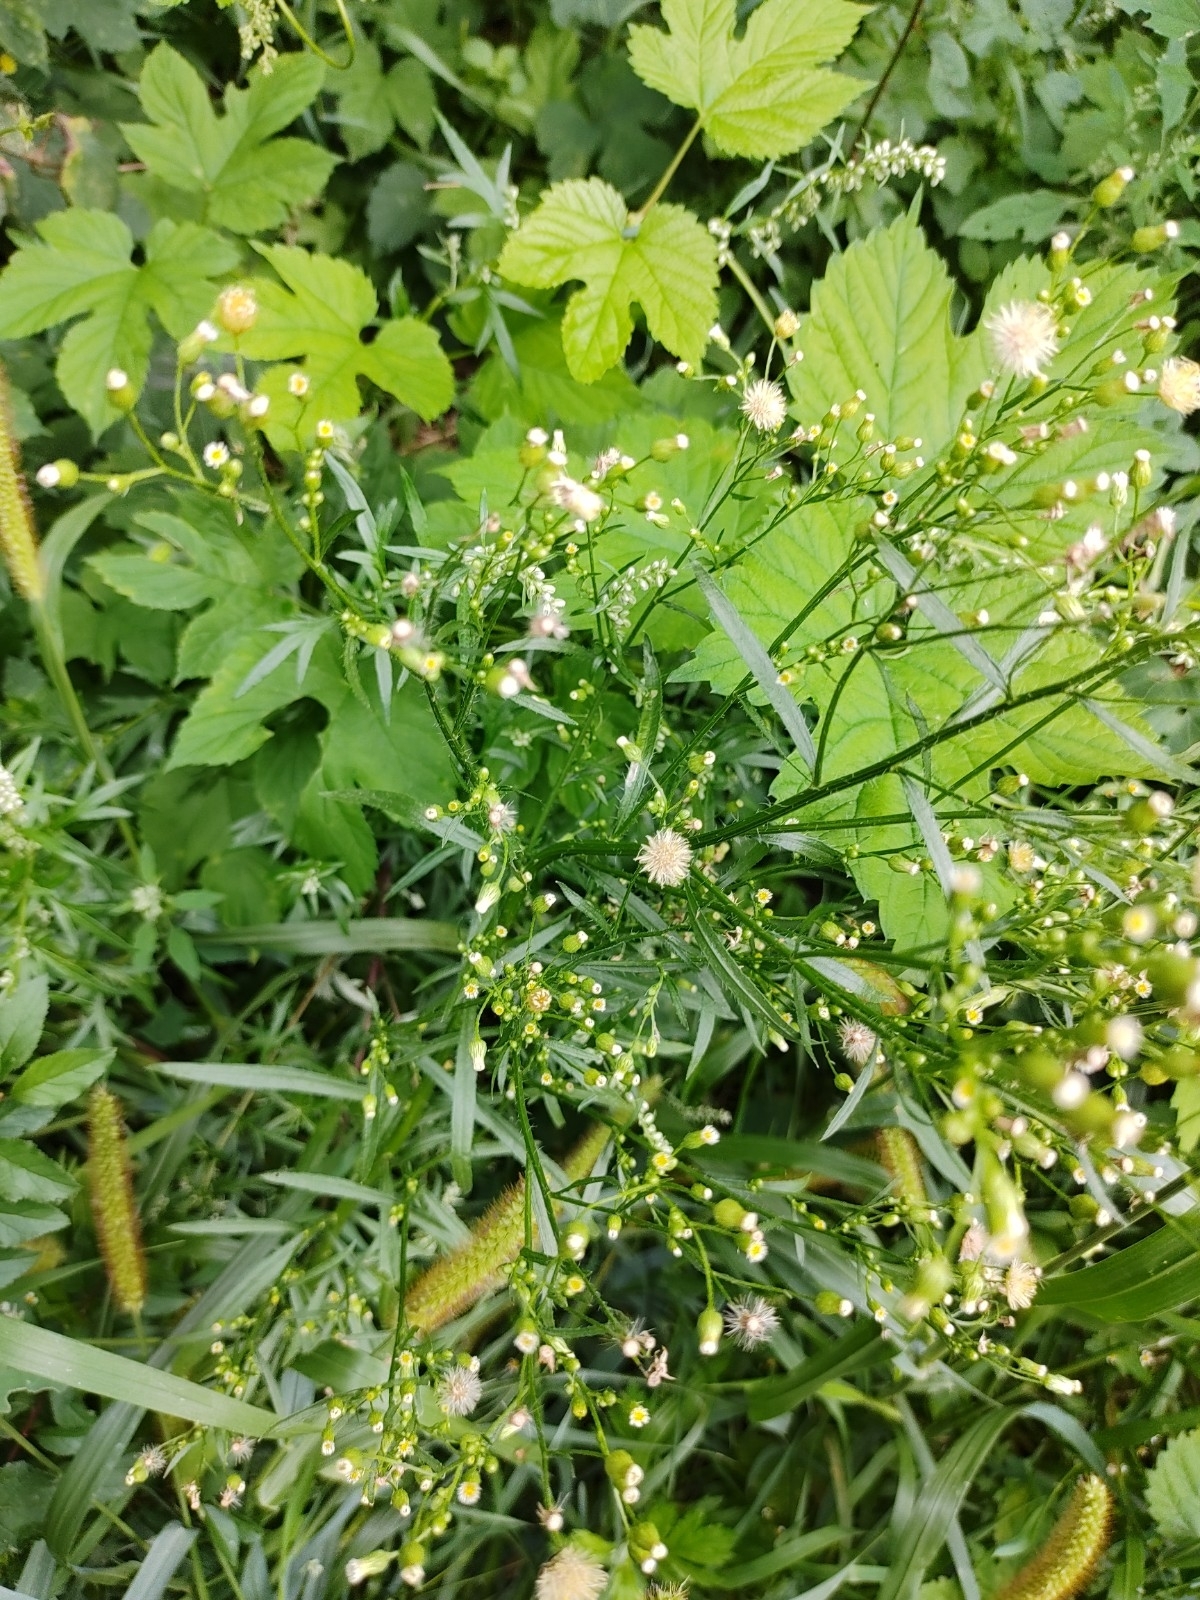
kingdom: Plantae
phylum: Tracheophyta
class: Magnoliopsida
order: Asterales
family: Asteraceae
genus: Erigeron
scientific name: Erigeron canadensis
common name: Canadian fleabane
